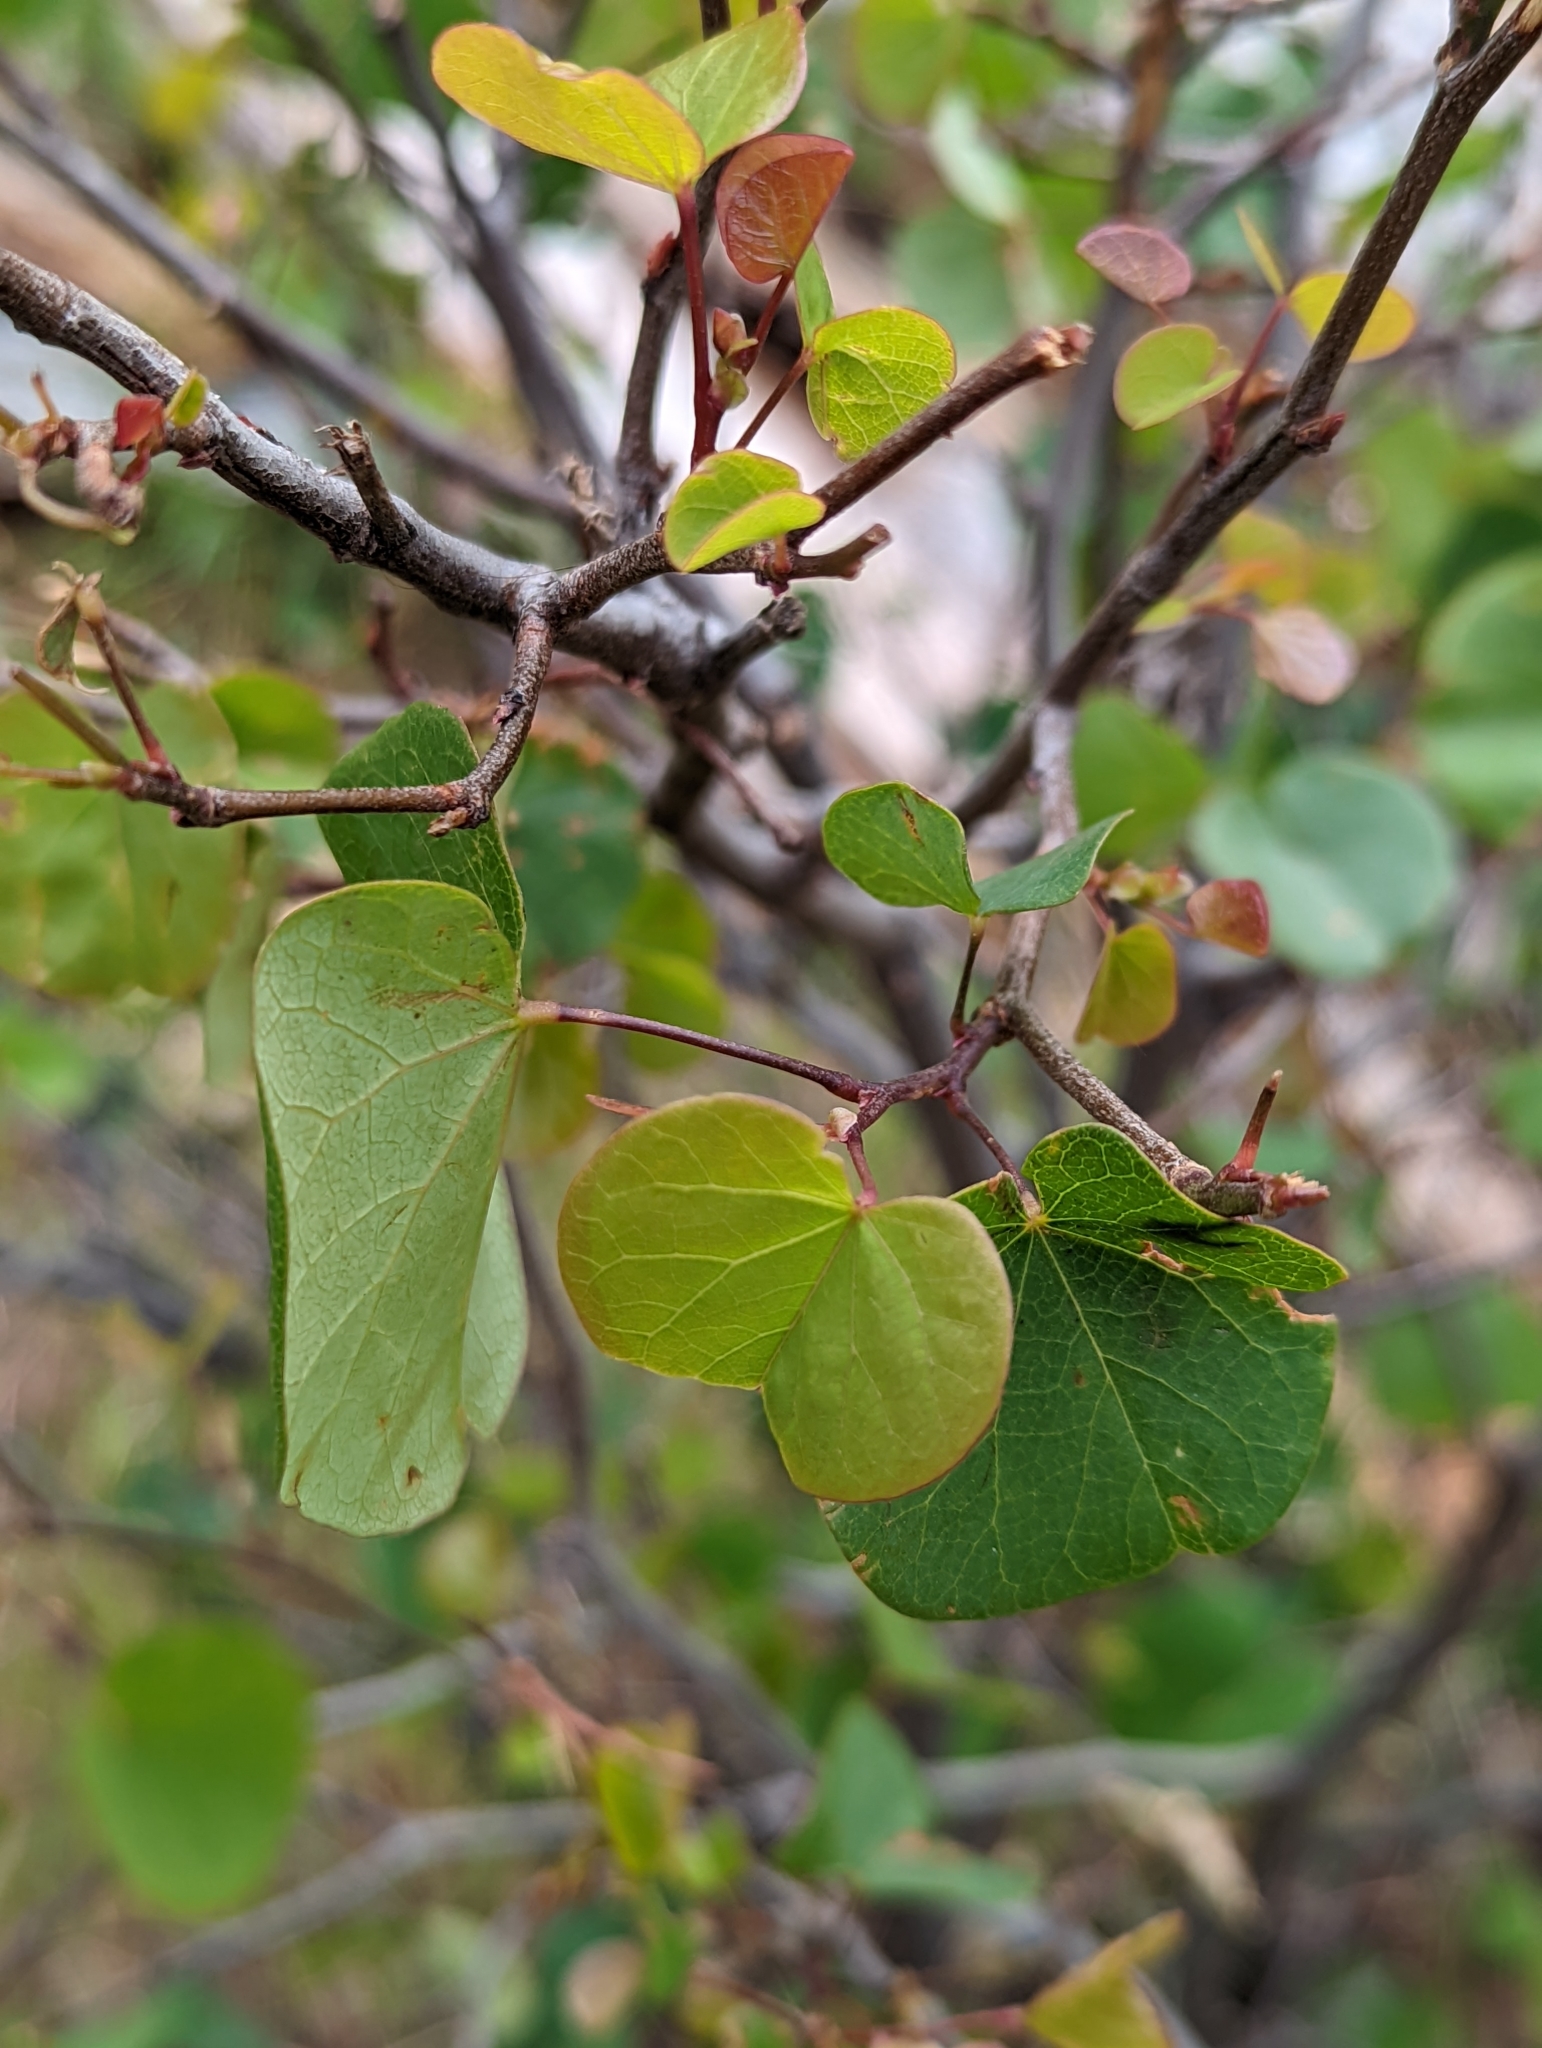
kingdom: Plantae
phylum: Tracheophyta
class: Magnoliopsida
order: Fabales
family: Fabaceae
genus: Cercis
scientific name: Cercis occidentalis
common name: California redbud
